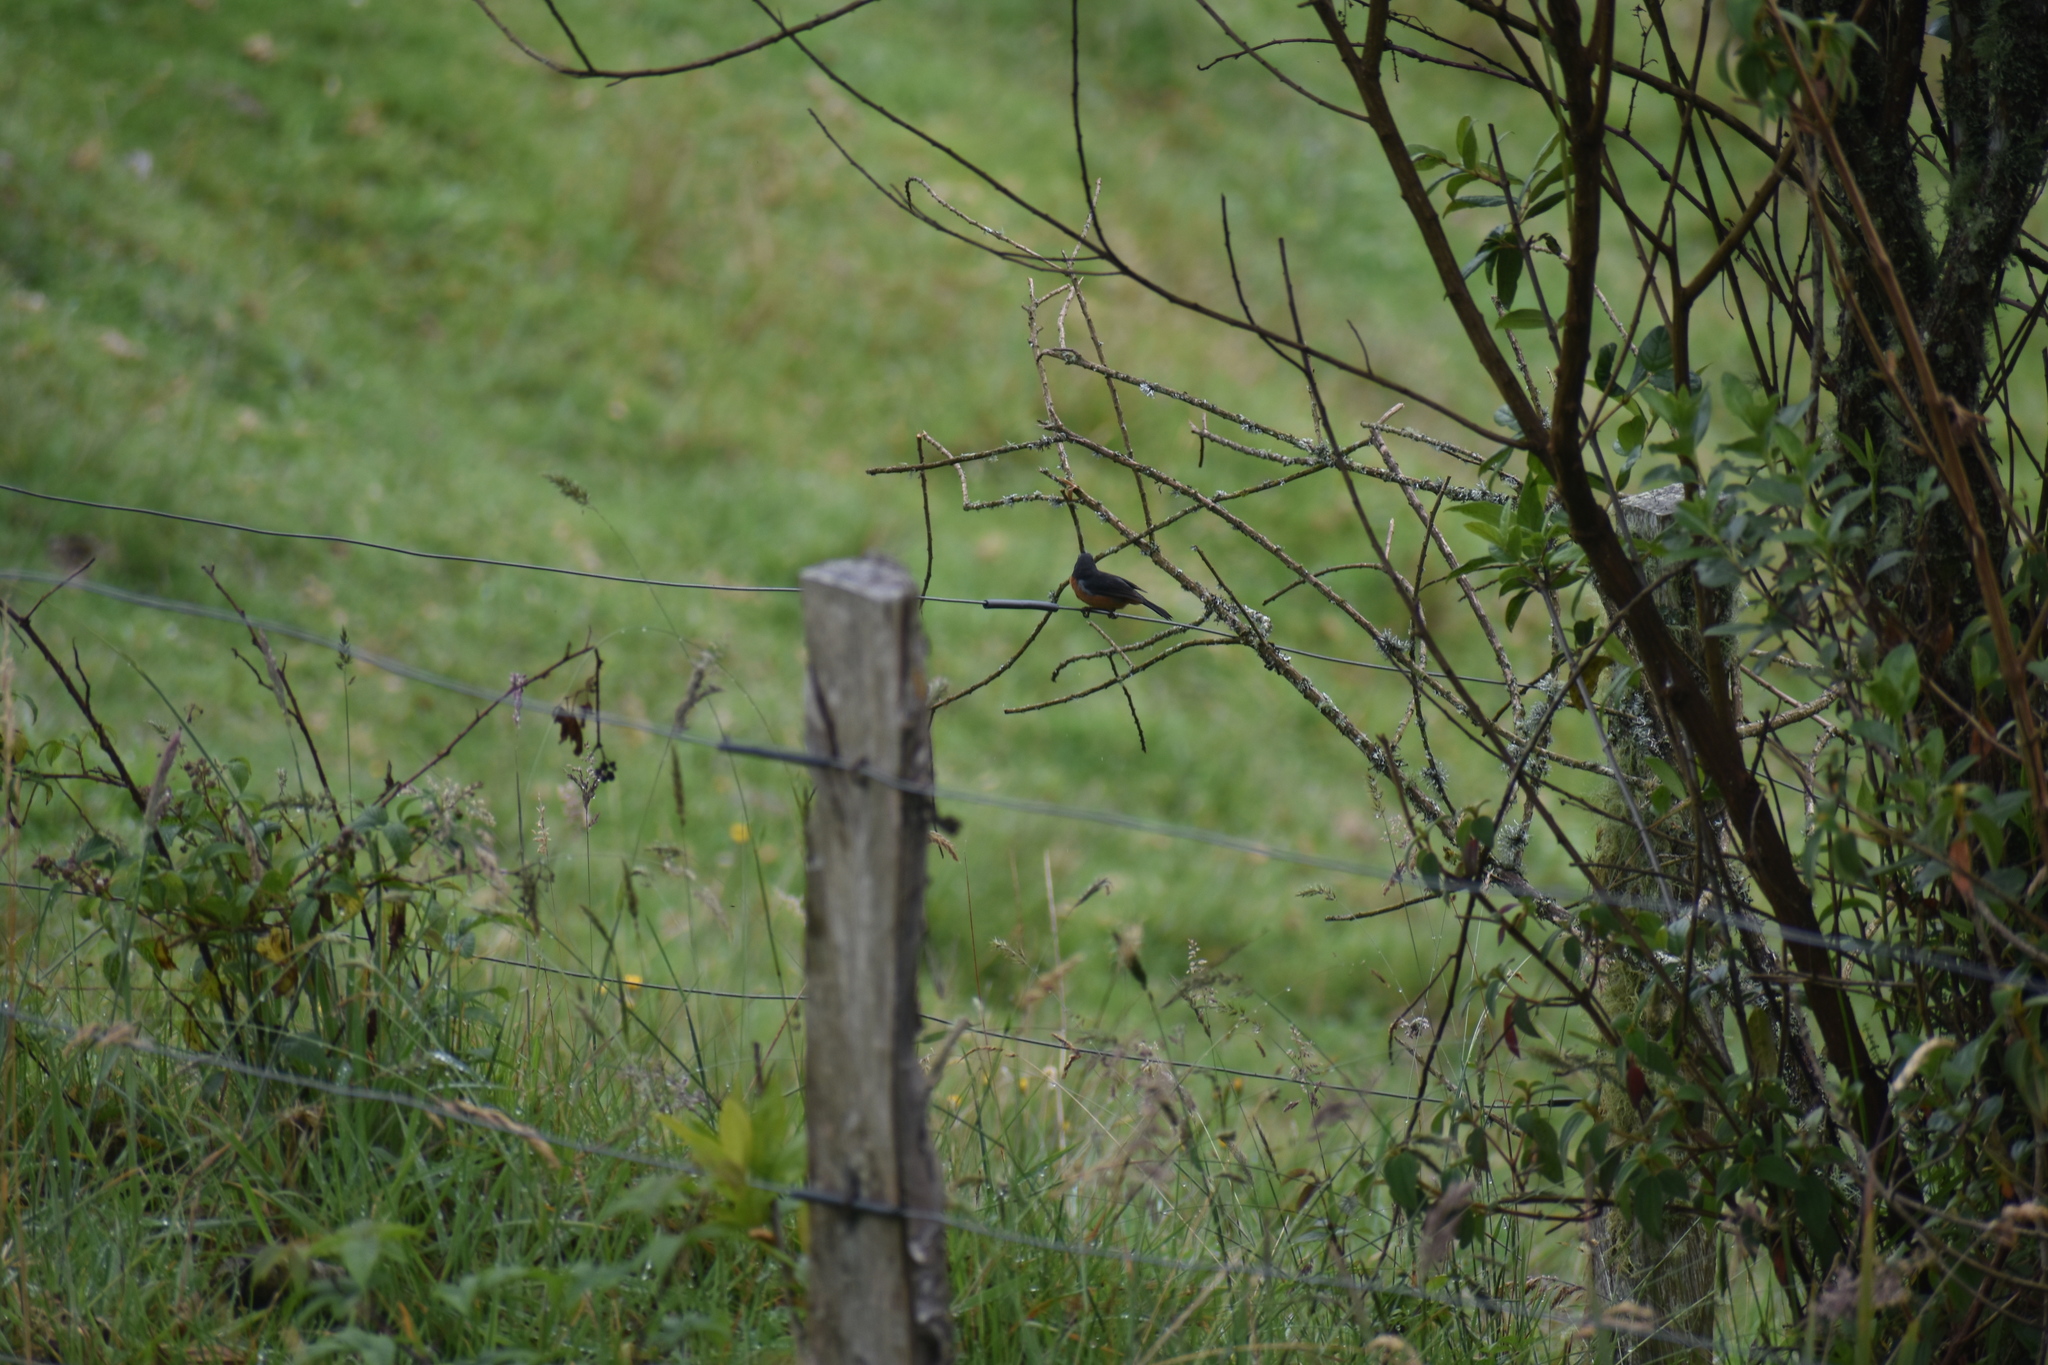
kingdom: Animalia
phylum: Chordata
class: Aves
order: Passeriformes
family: Thraupidae
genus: Diglossa
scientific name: Diglossa brunneiventris
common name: Black-throated flowerpiercer
